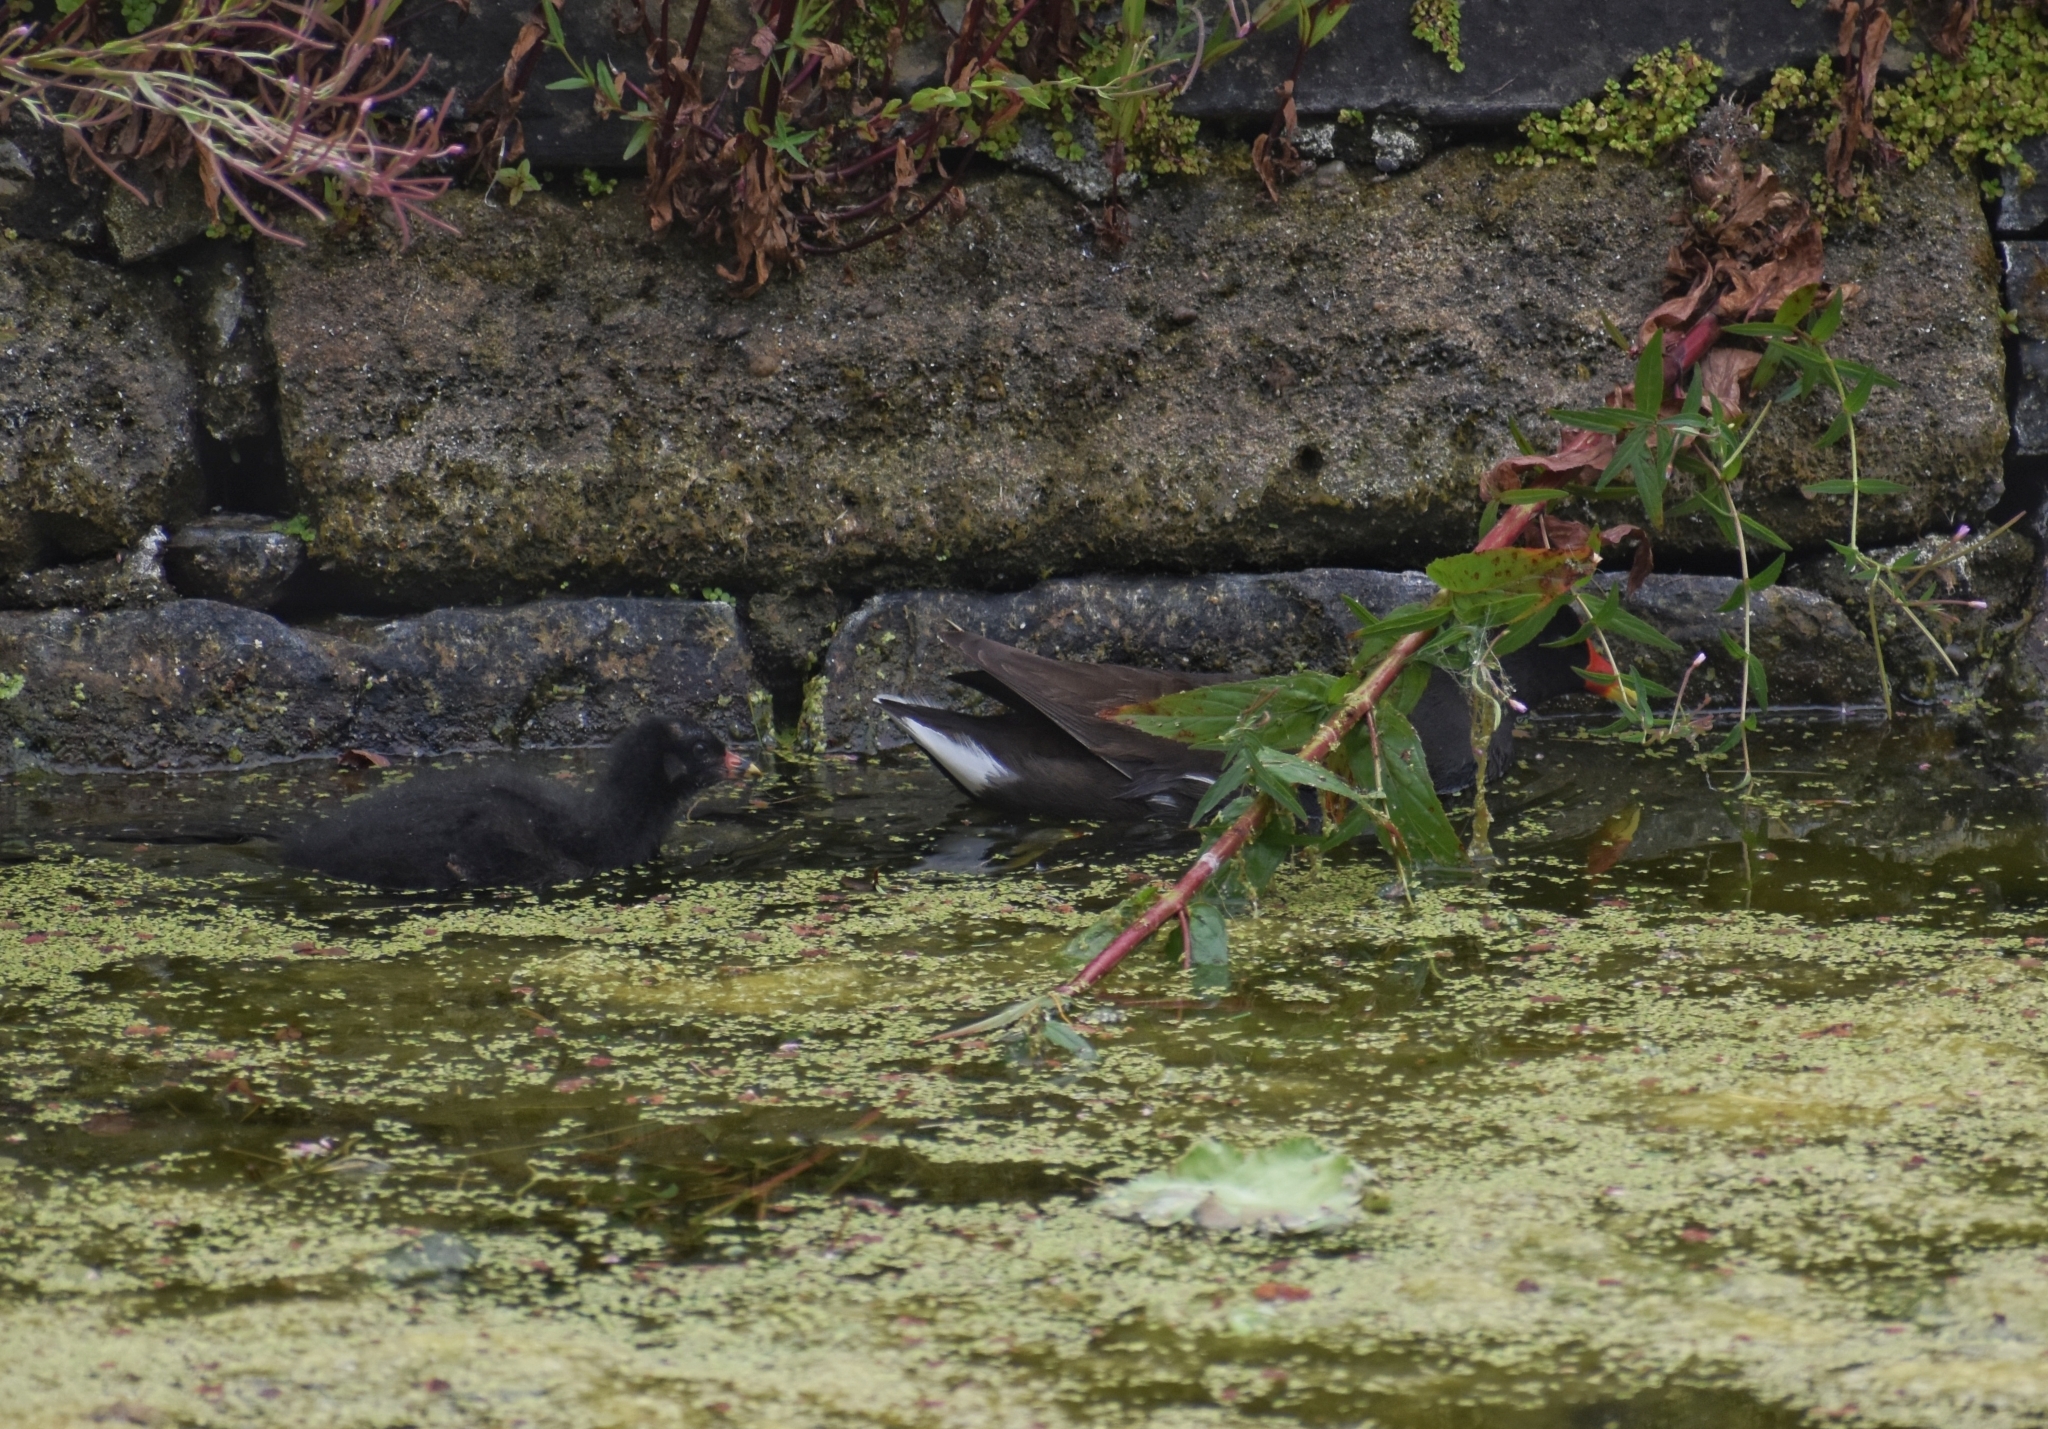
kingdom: Animalia
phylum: Chordata
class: Aves
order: Gruiformes
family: Rallidae
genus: Gallinula
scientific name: Gallinula chloropus
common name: Common moorhen
